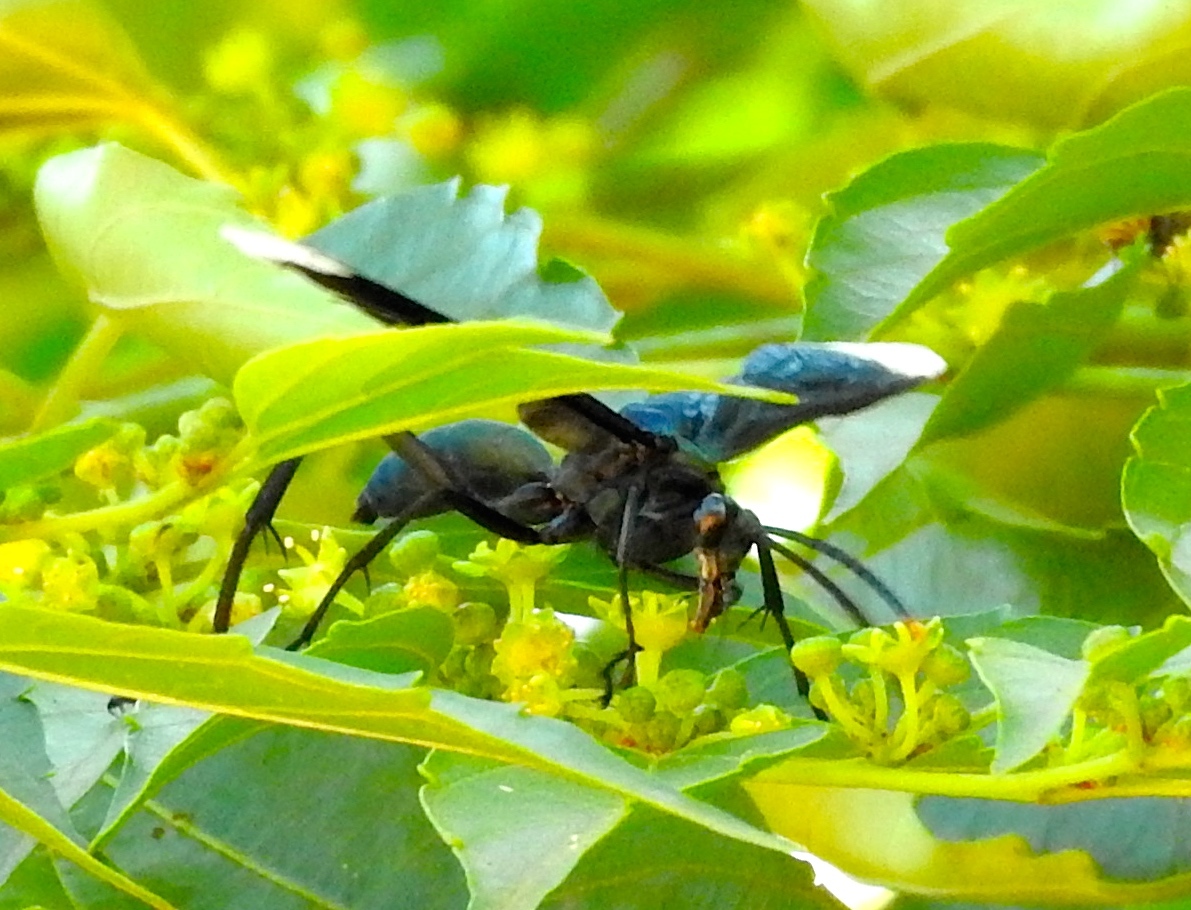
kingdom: Animalia
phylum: Arthropoda
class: Insecta
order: Hymenoptera
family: Pompilidae
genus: Pepsis
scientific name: Pepsis
